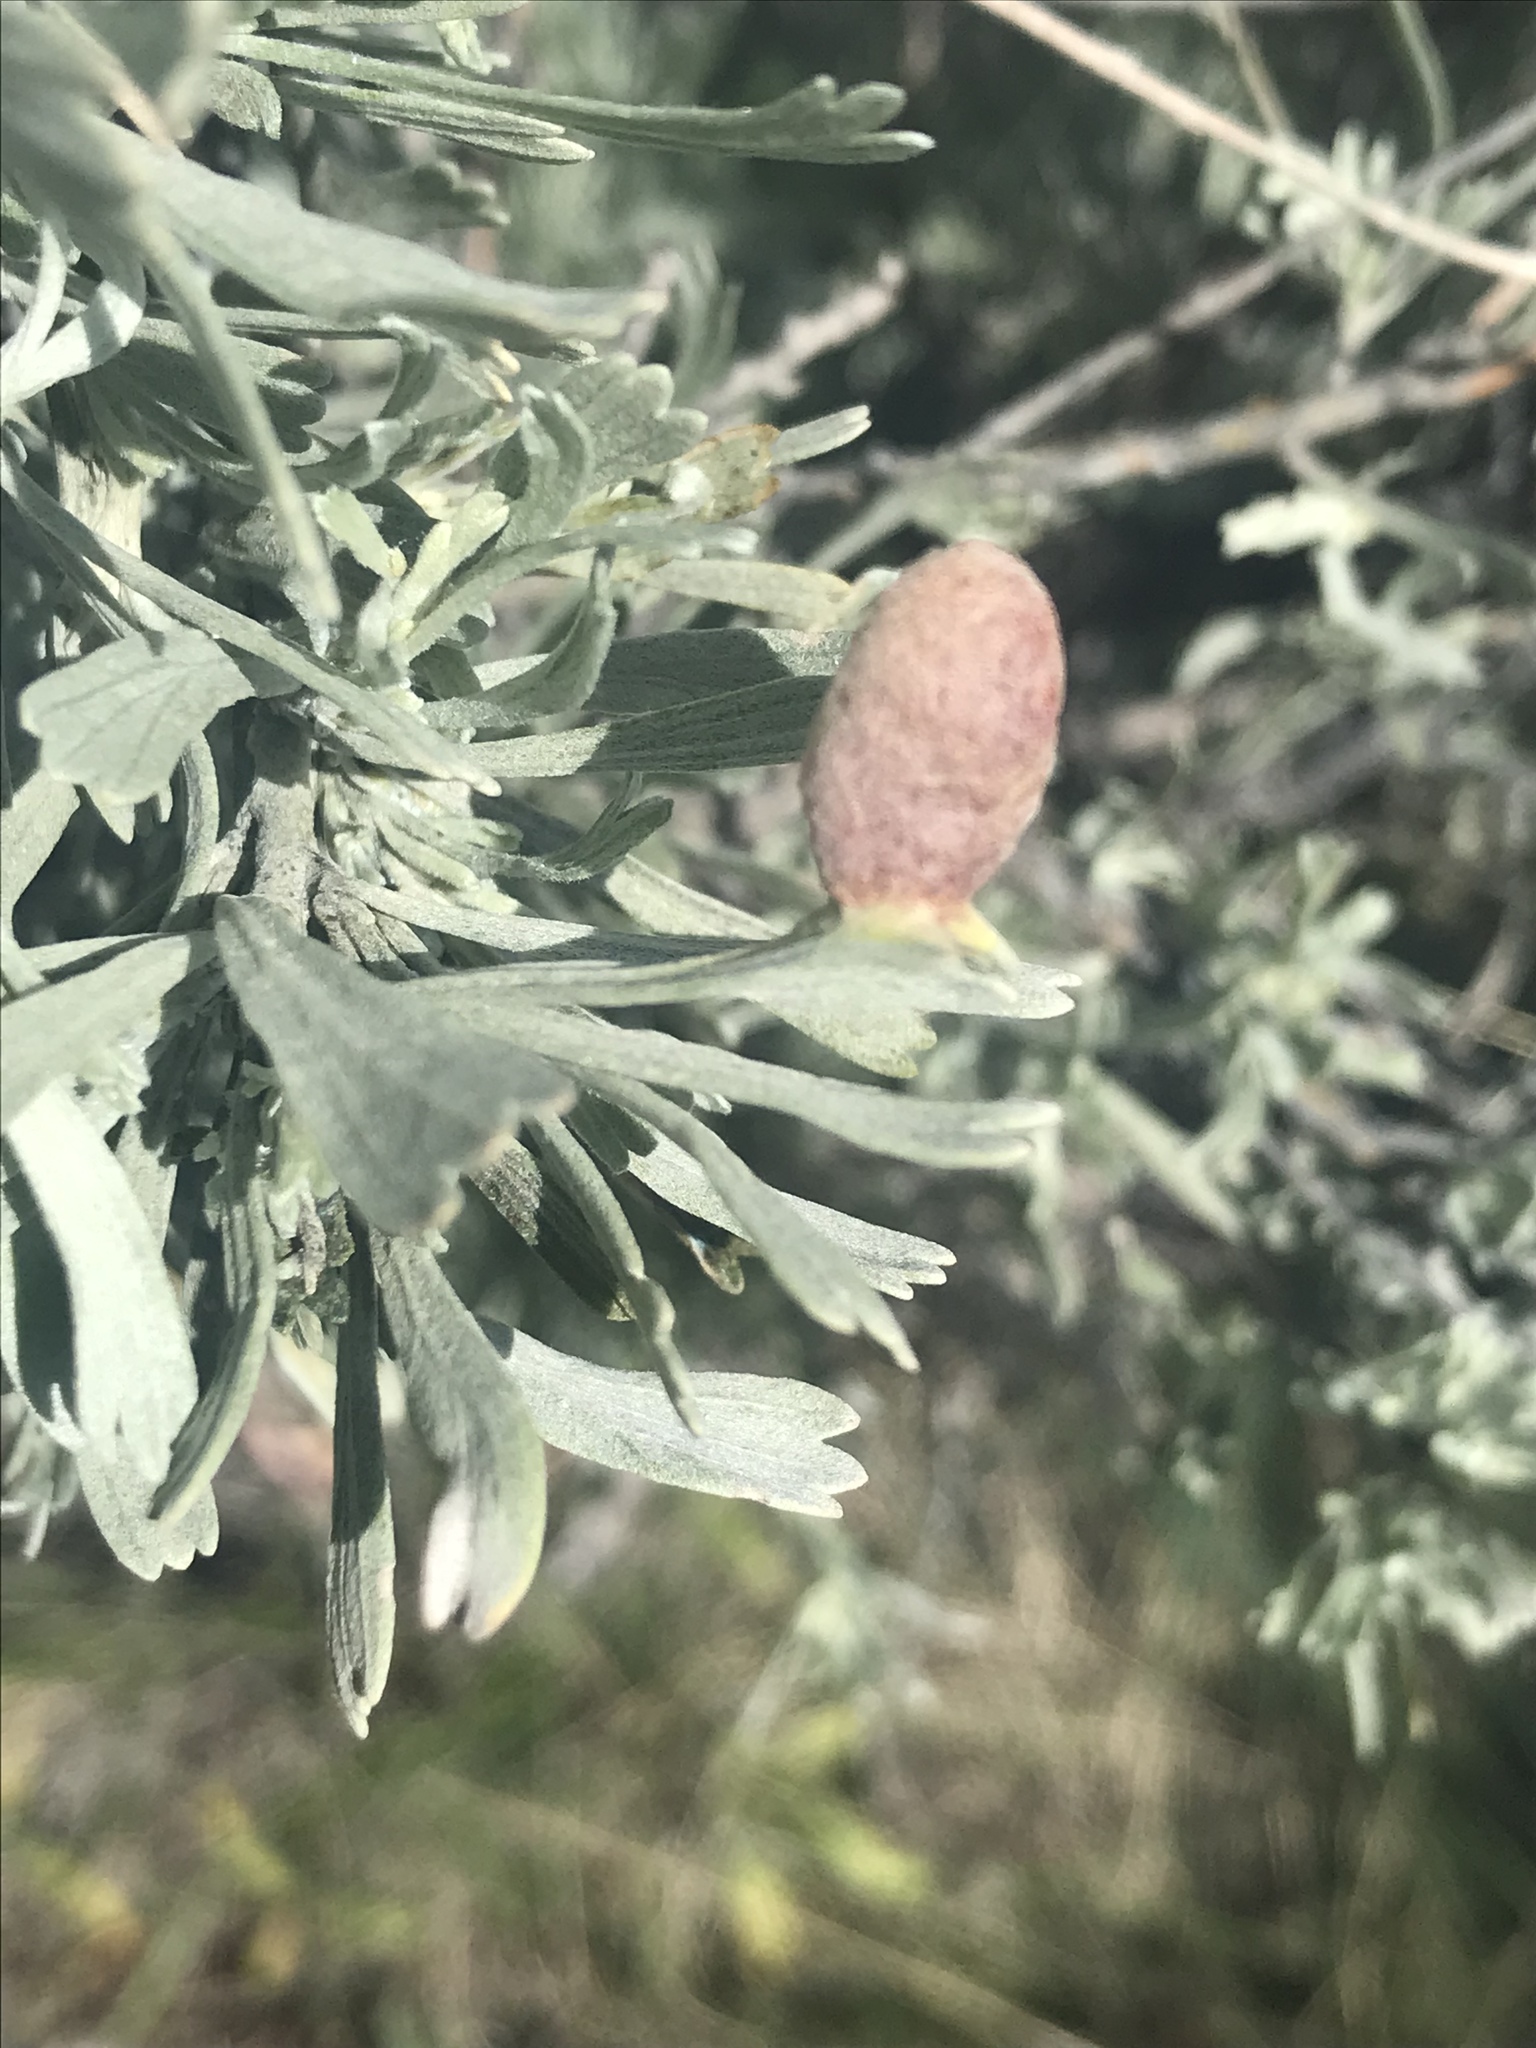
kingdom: Plantae
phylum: Tracheophyta
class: Magnoliopsida
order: Asterales
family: Asteraceae
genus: Artemisia
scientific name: Artemisia tridentata
